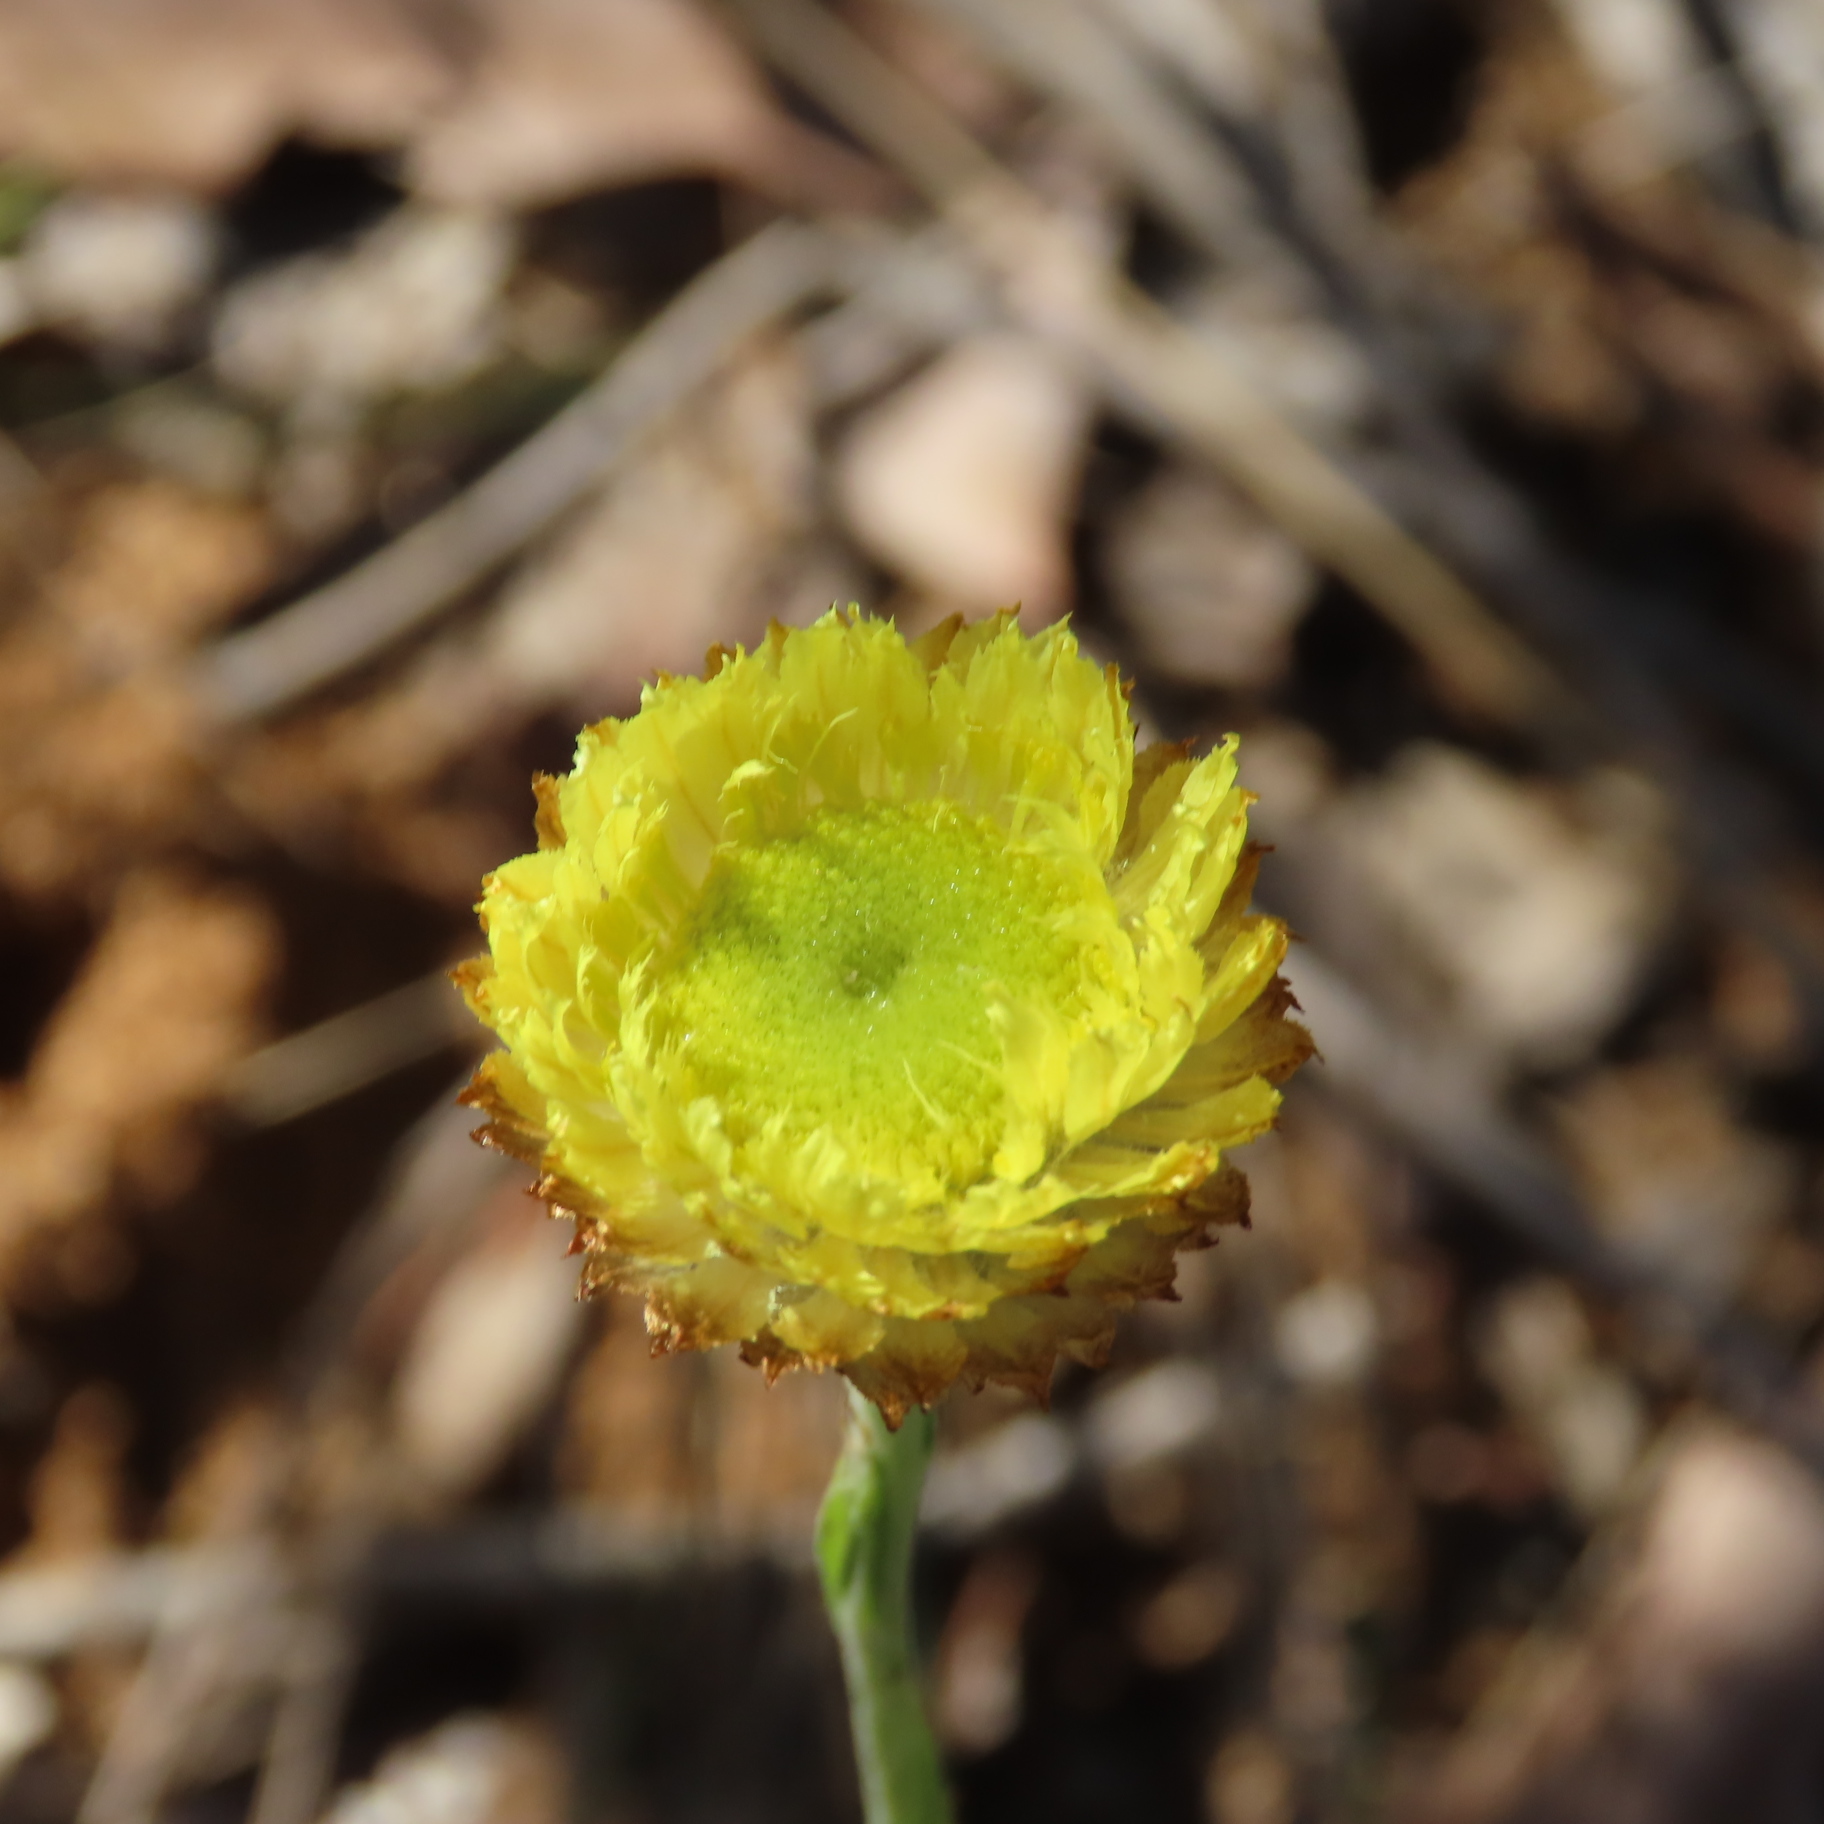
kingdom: Plantae
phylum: Tracheophyta
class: Magnoliopsida
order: Asterales
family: Asteraceae
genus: Coronidium
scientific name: Coronidium scorpioides
